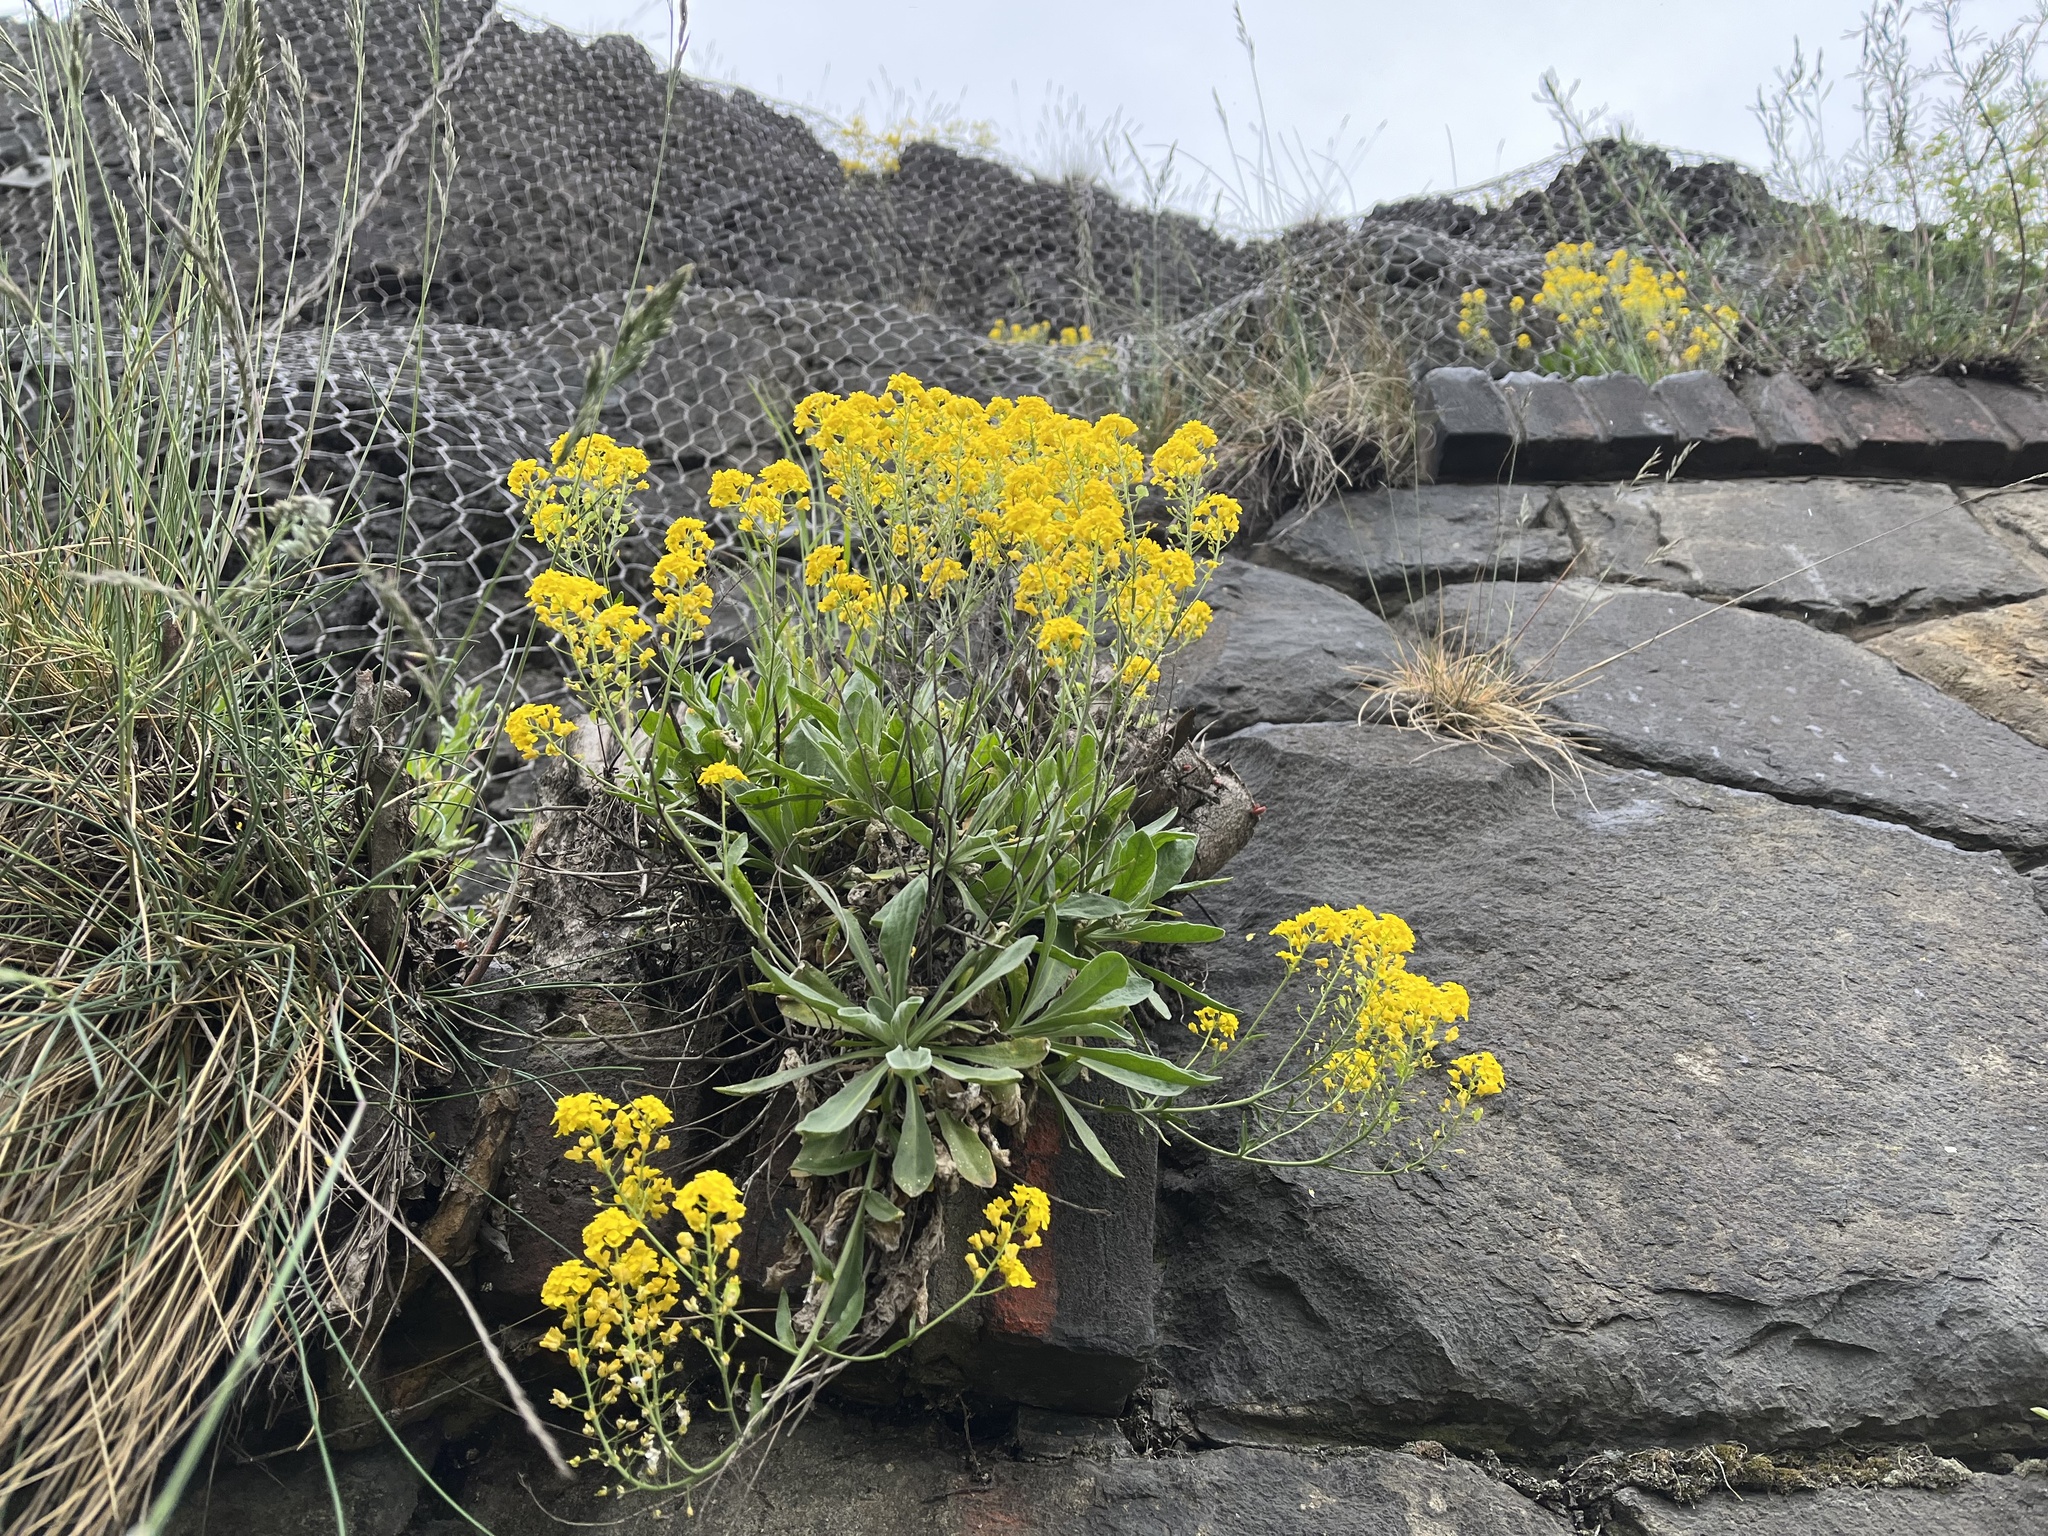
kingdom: Plantae
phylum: Tracheophyta
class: Magnoliopsida
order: Brassicales
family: Brassicaceae
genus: Aurinia
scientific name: Aurinia saxatilis
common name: Golden-tuft alyssum
